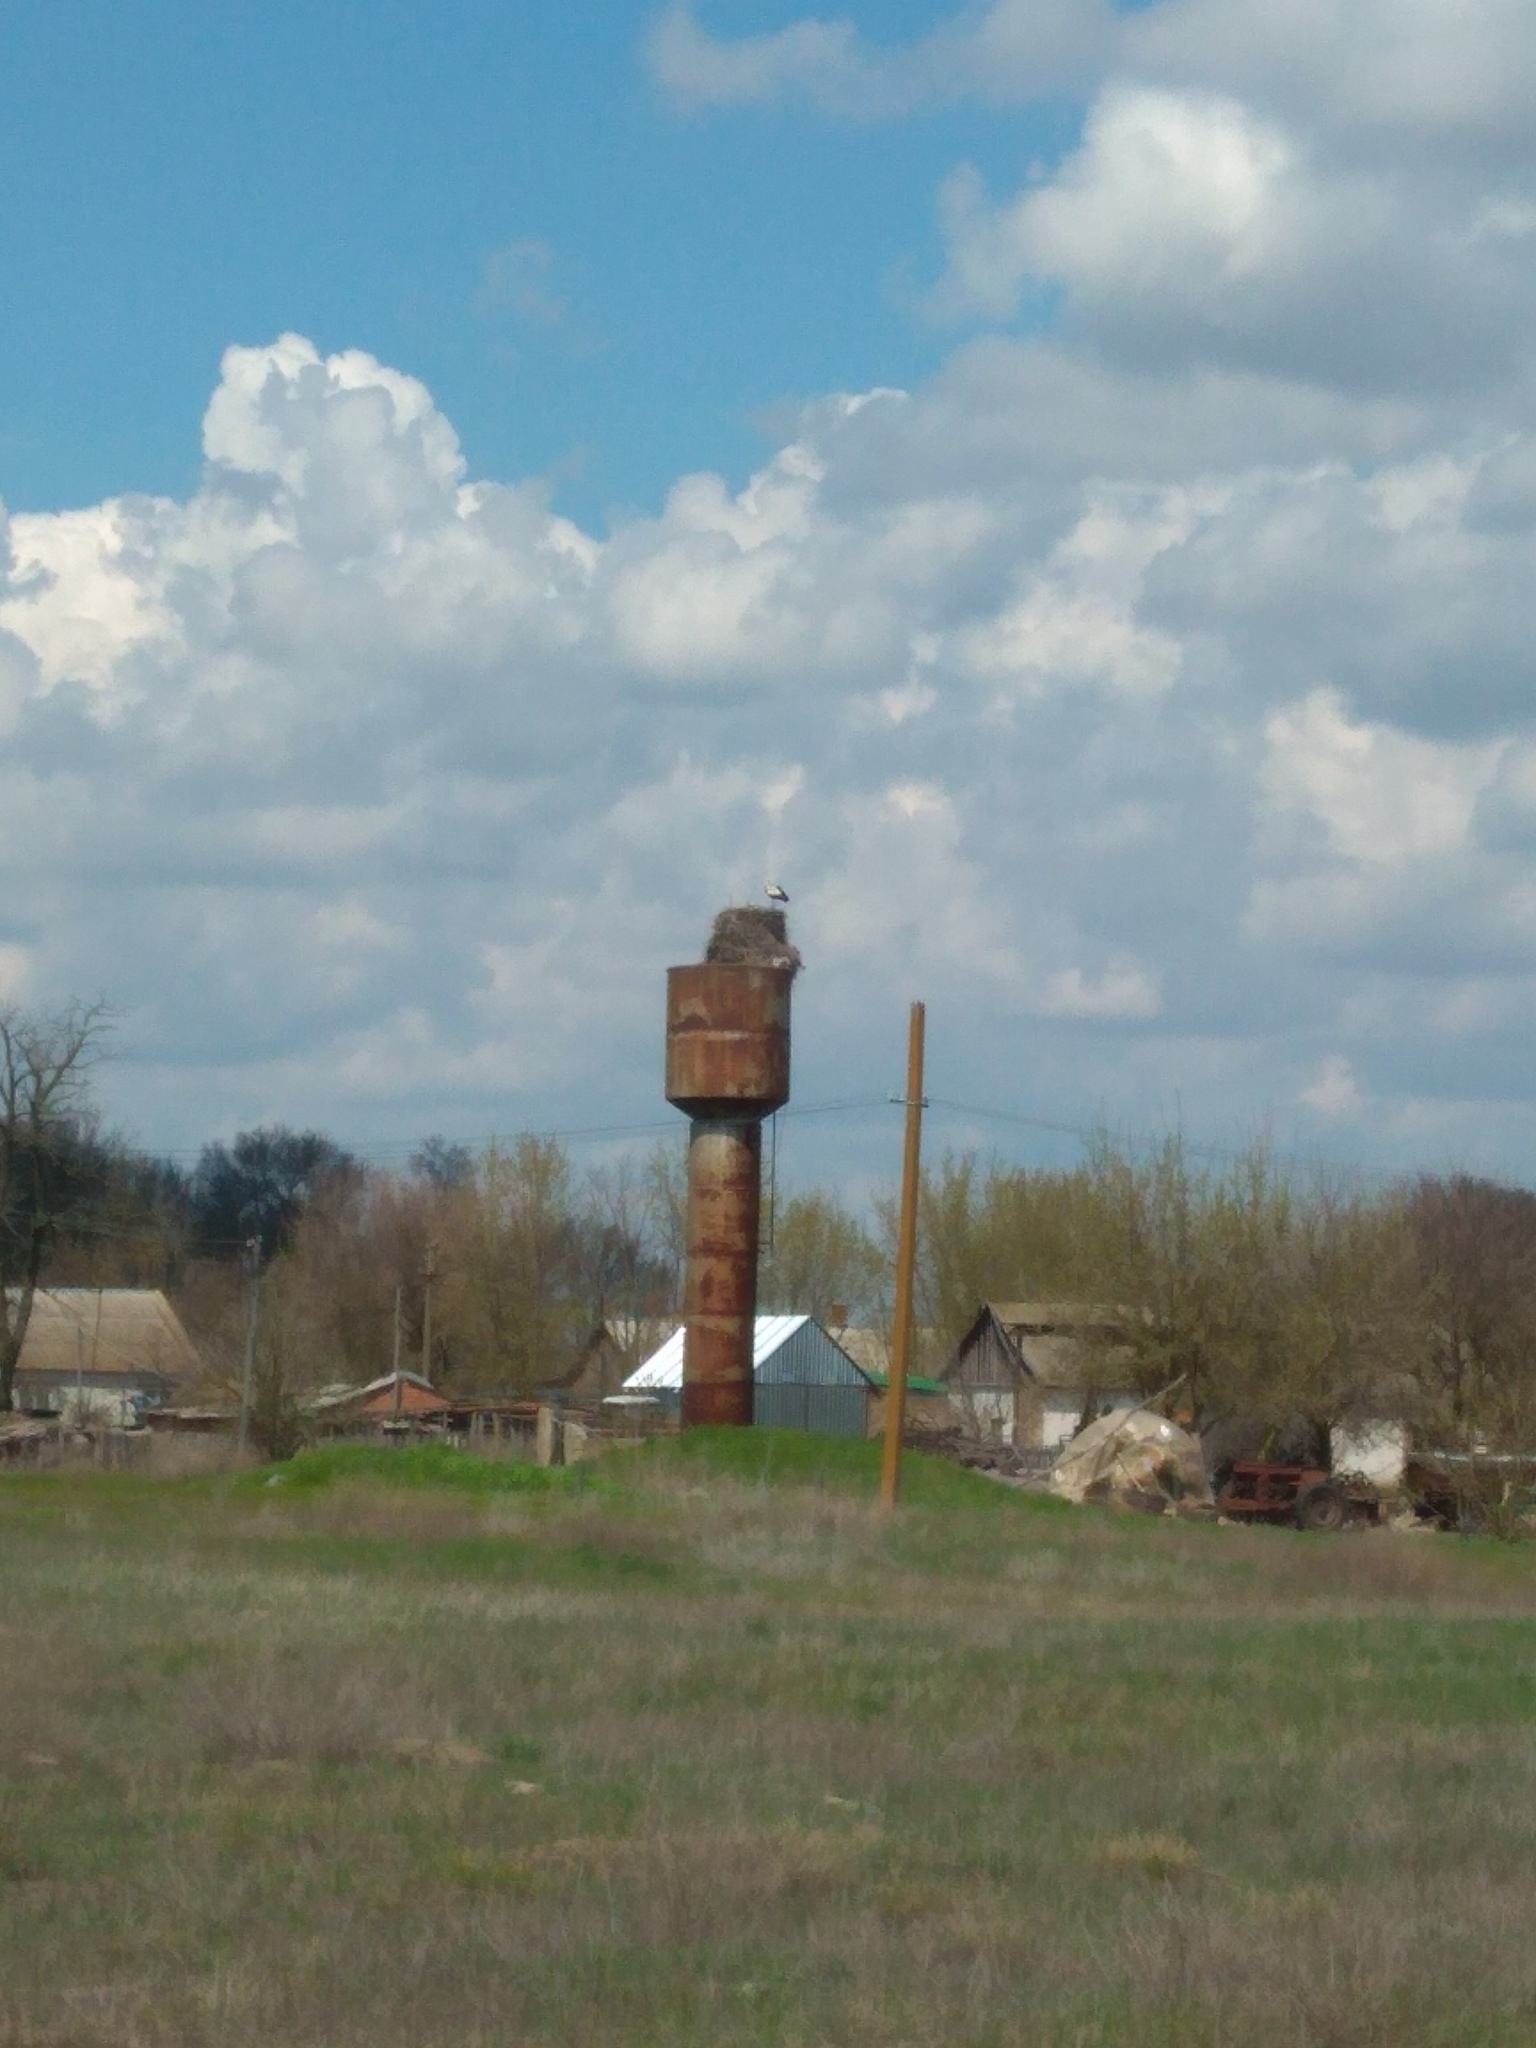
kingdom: Animalia
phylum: Chordata
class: Aves
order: Ciconiiformes
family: Ciconiidae
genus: Ciconia
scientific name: Ciconia ciconia
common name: White stork
